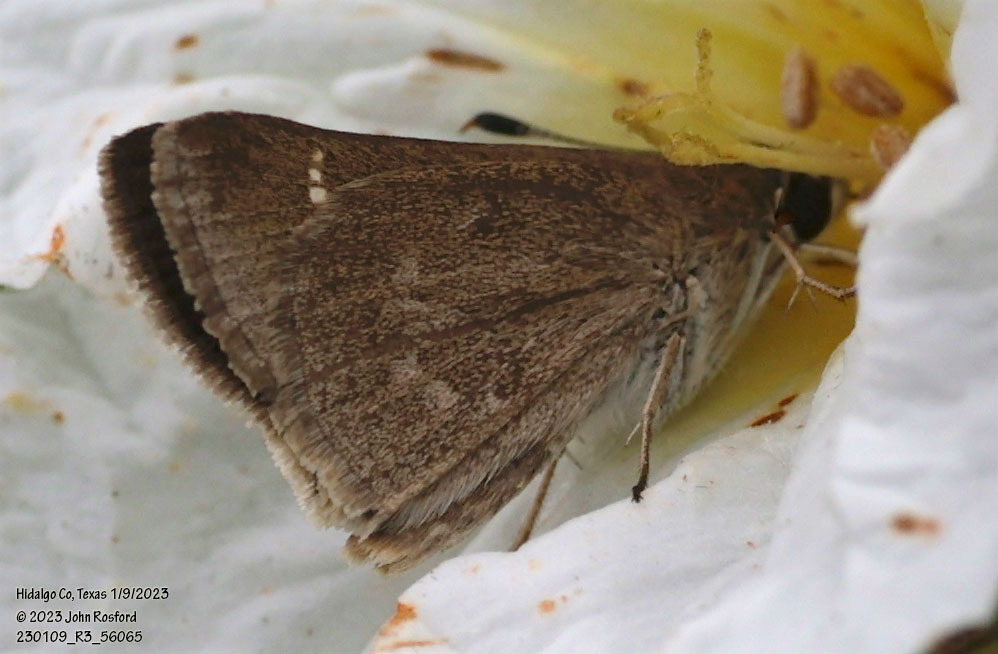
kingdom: Animalia
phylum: Arthropoda
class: Insecta
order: Lepidoptera
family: Hesperiidae
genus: Lerodea
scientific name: Lerodea eufala
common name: Eufala skipper
